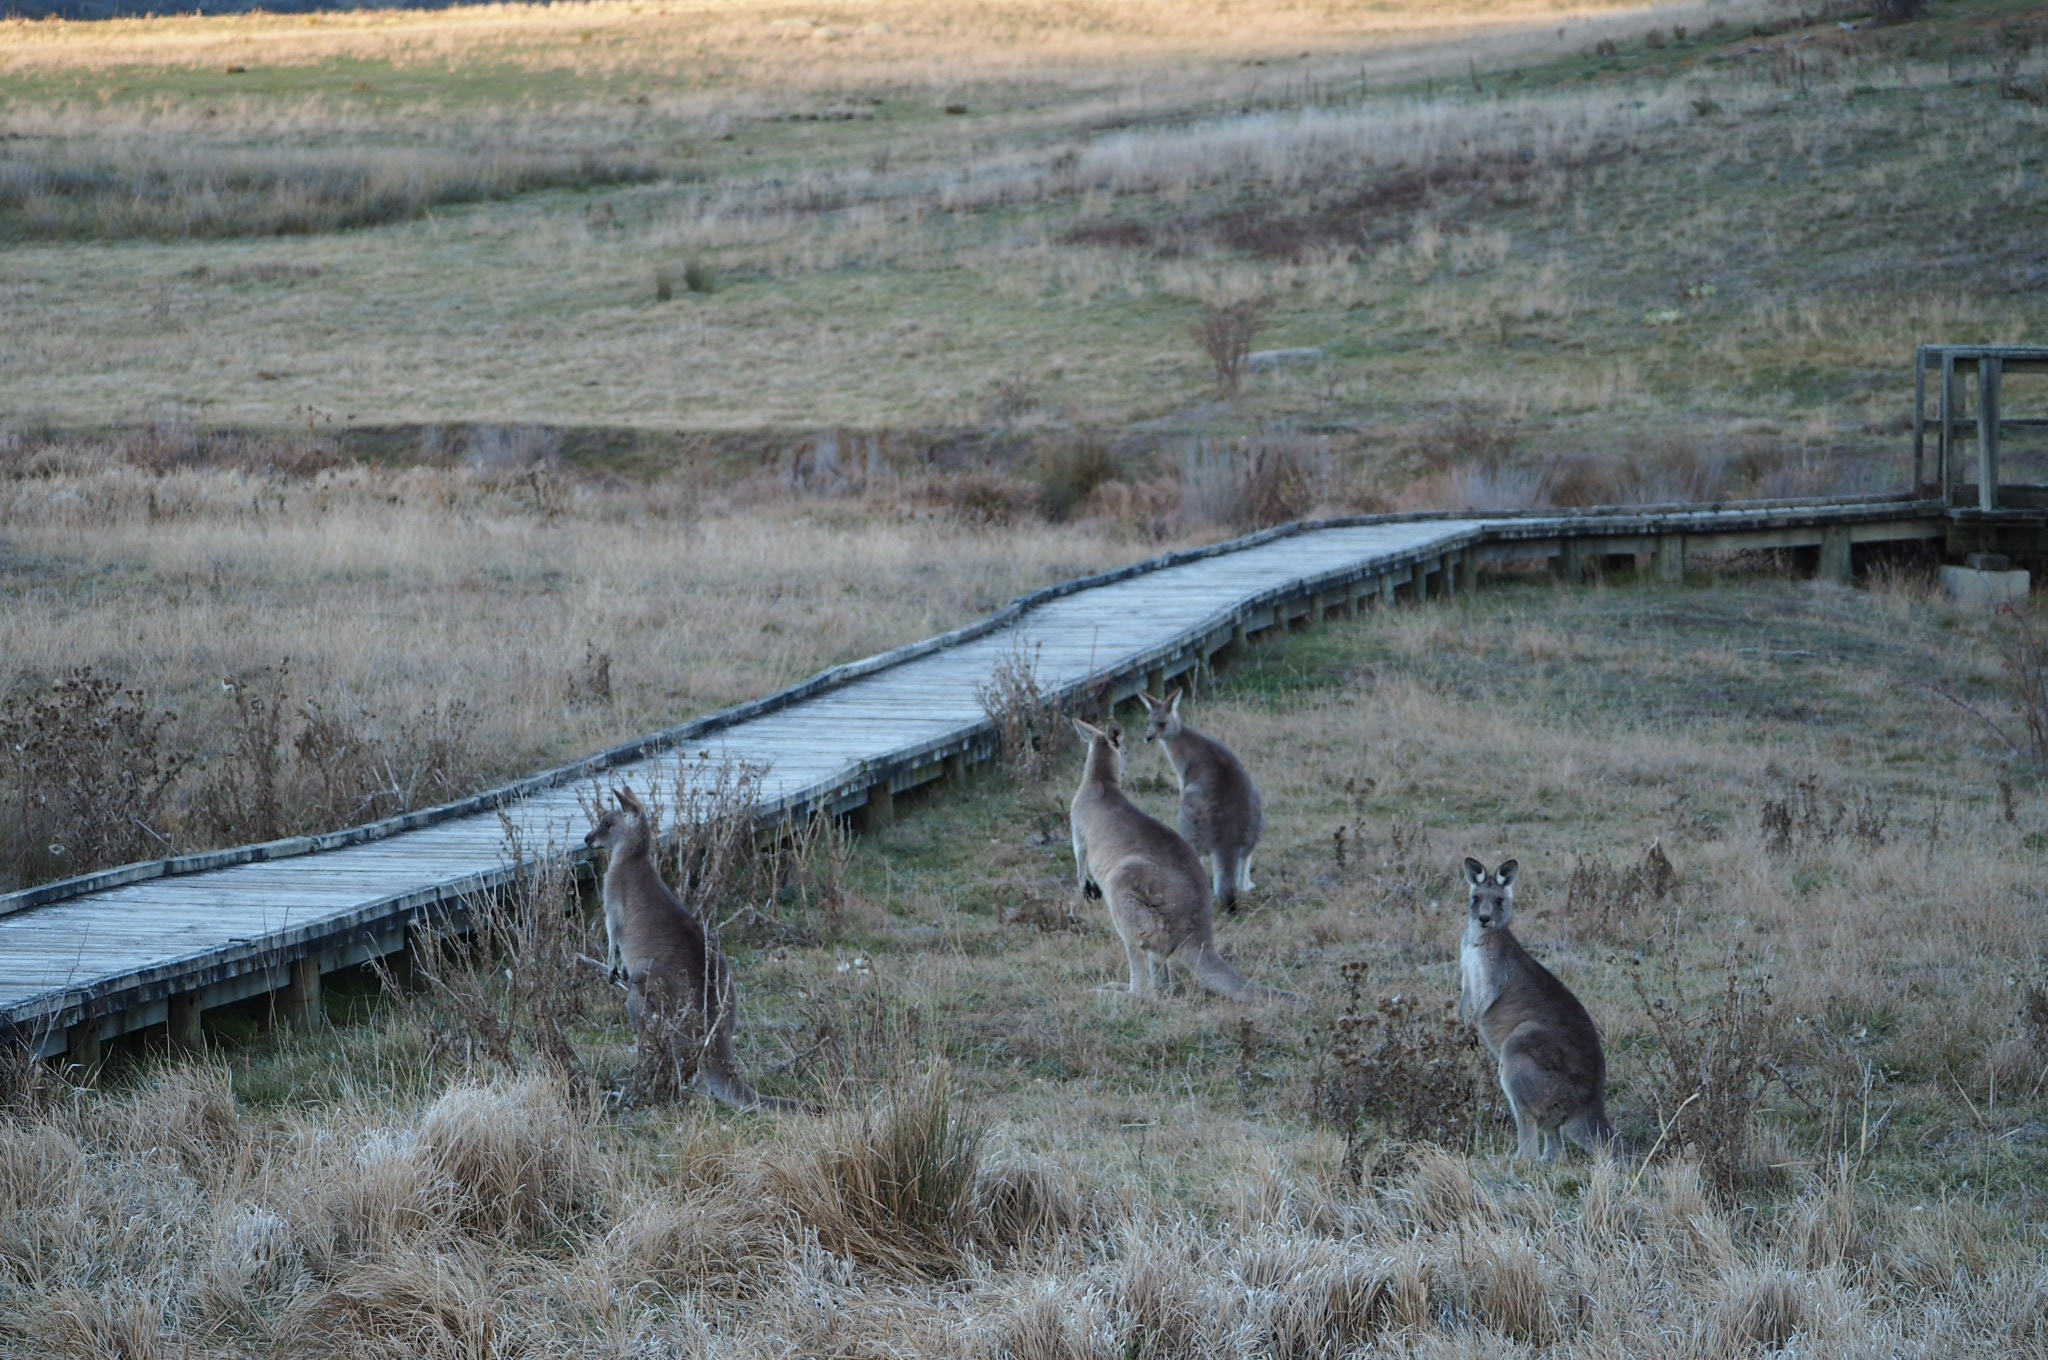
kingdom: Animalia
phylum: Chordata
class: Mammalia
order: Diprotodontia
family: Macropodidae
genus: Macropus
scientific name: Macropus giganteus
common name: Eastern grey kangaroo
